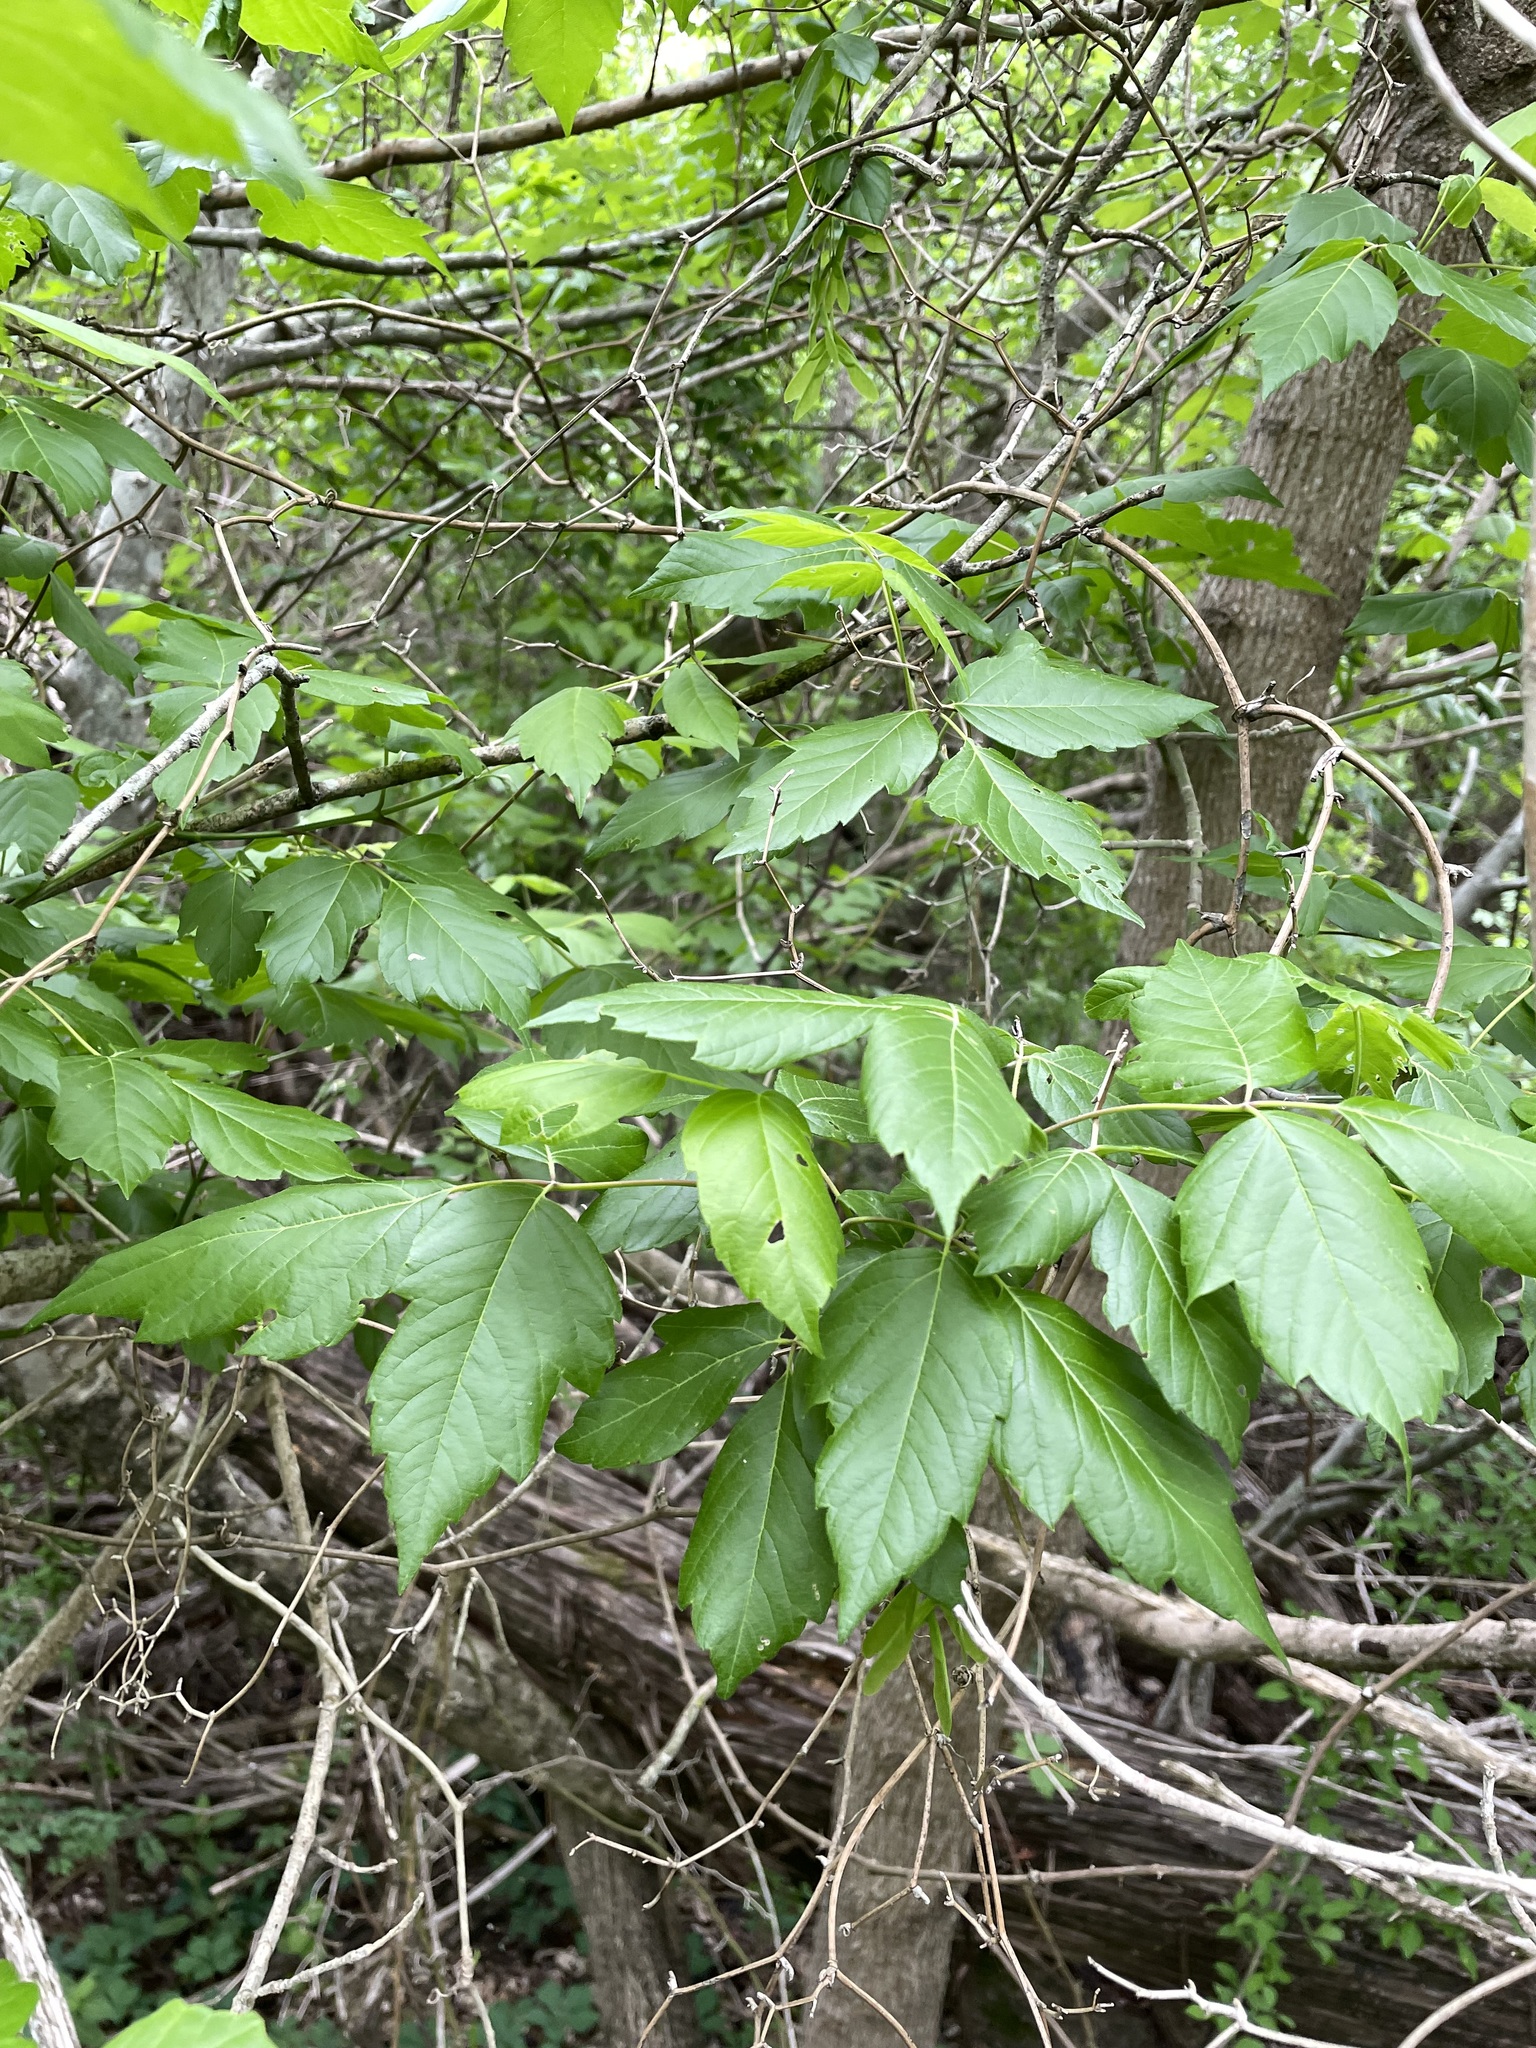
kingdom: Plantae
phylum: Tracheophyta
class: Magnoliopsida
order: Sapindales
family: Sapindaceae
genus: Acer
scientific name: Acer negundo
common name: Ashleaf maple
